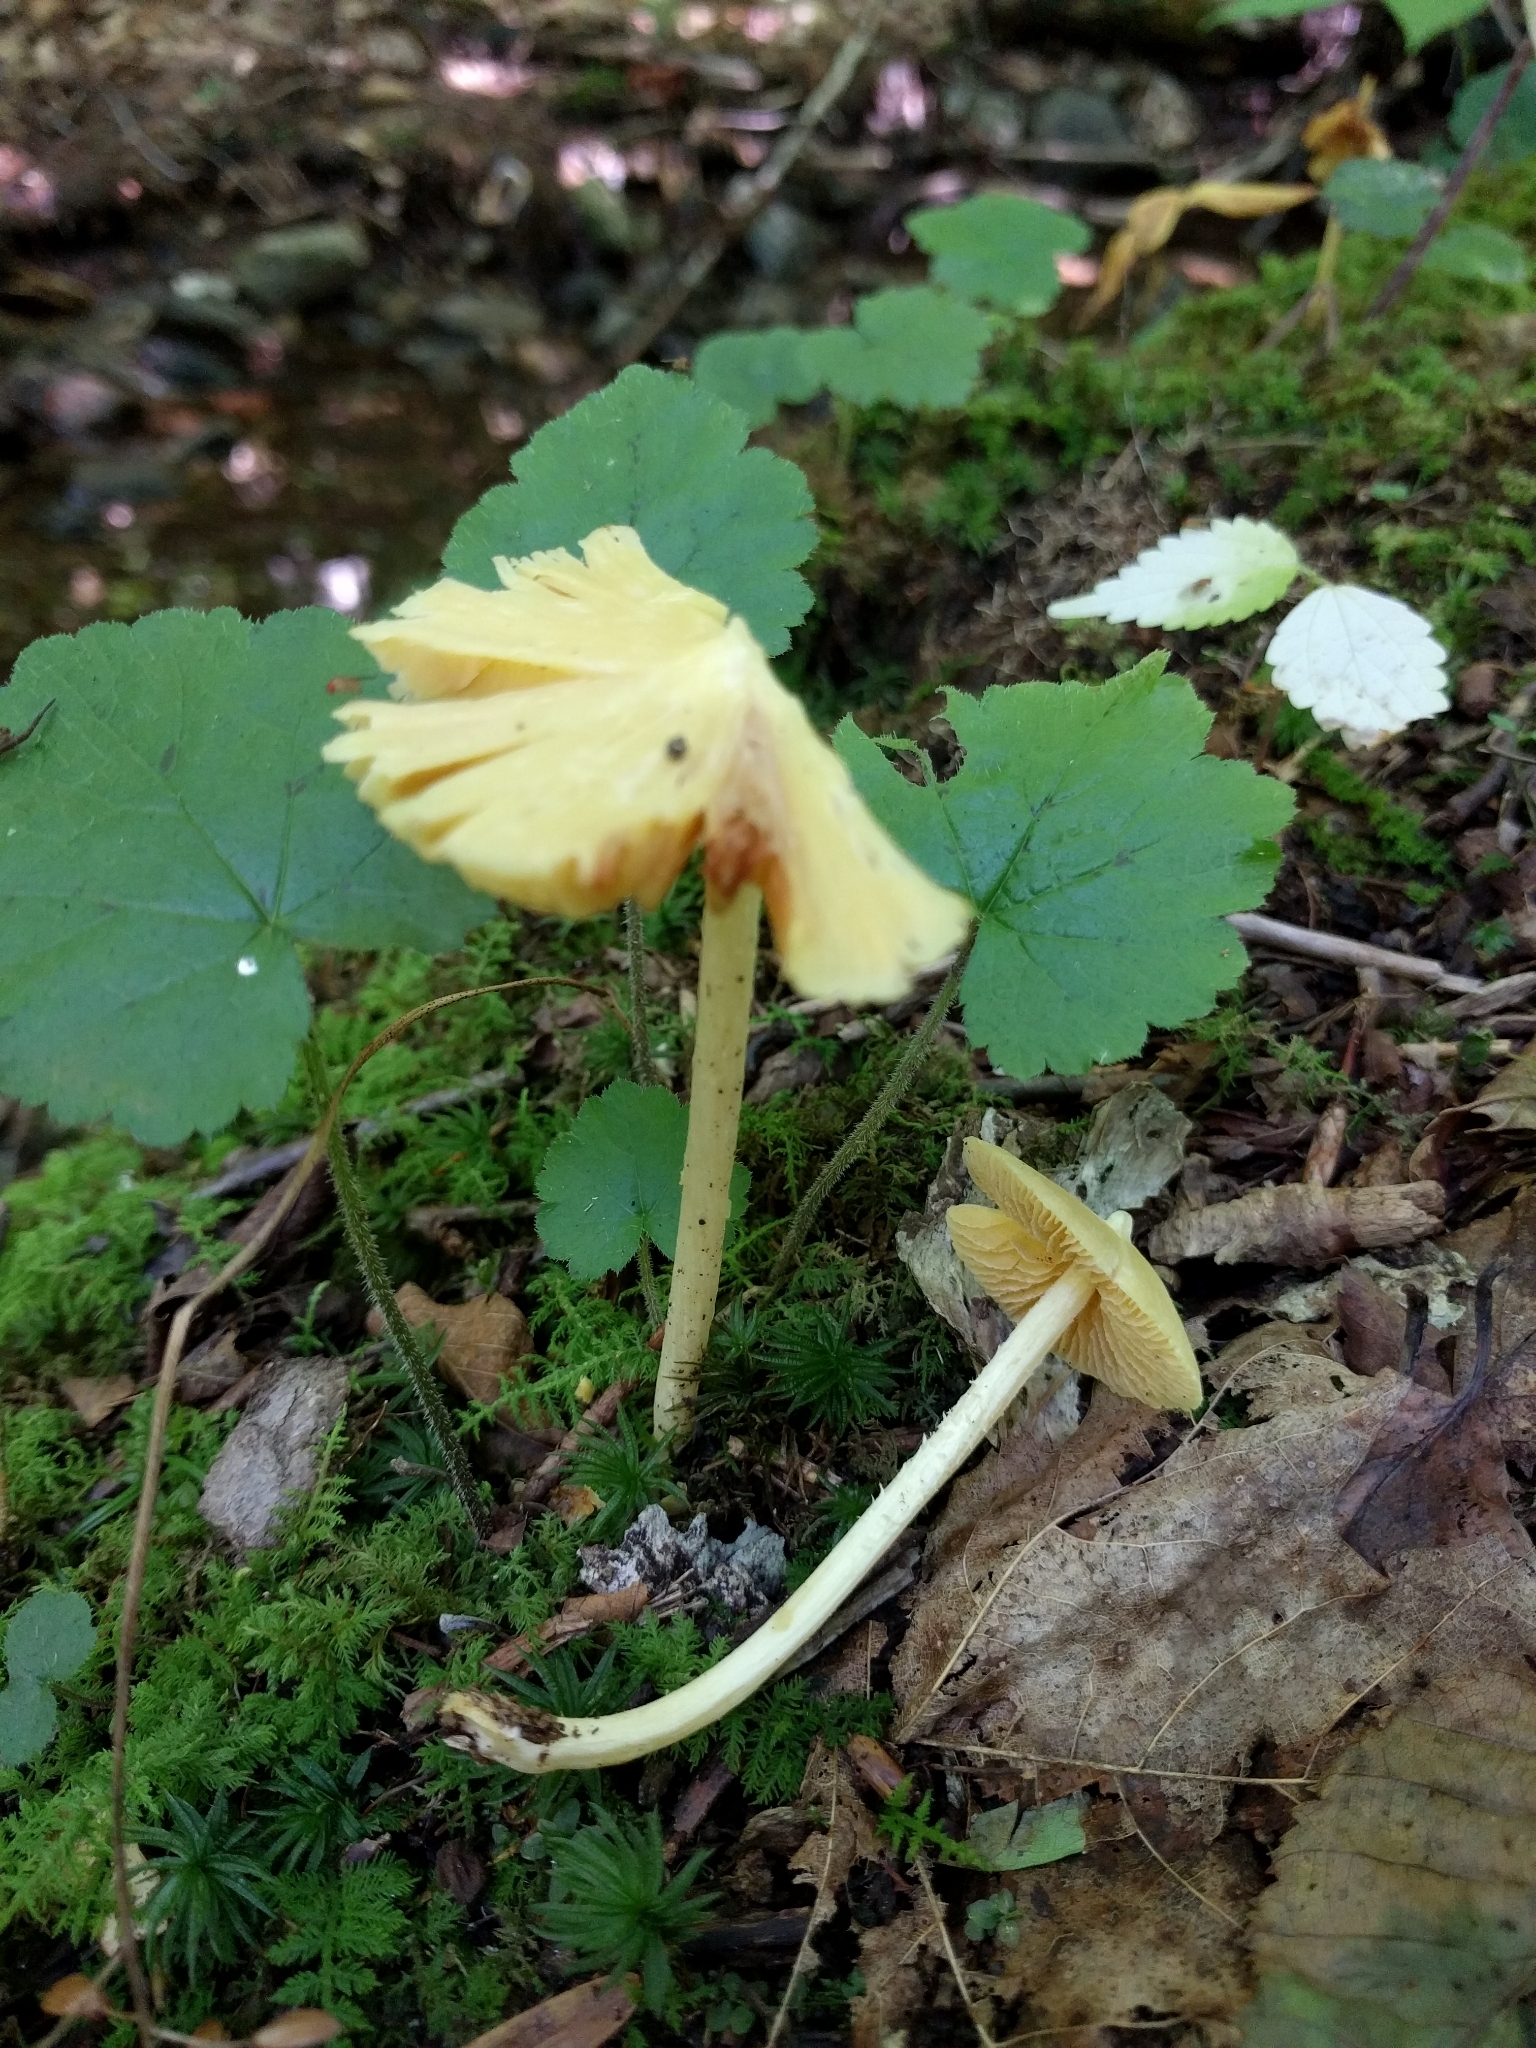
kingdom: Fungi
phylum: Basidiomycota
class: Agaricomycetes
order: Agaricales
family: Entolomataceae
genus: Entoloma
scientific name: Entoloma murrayi
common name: Yellow unicorn entoloma
